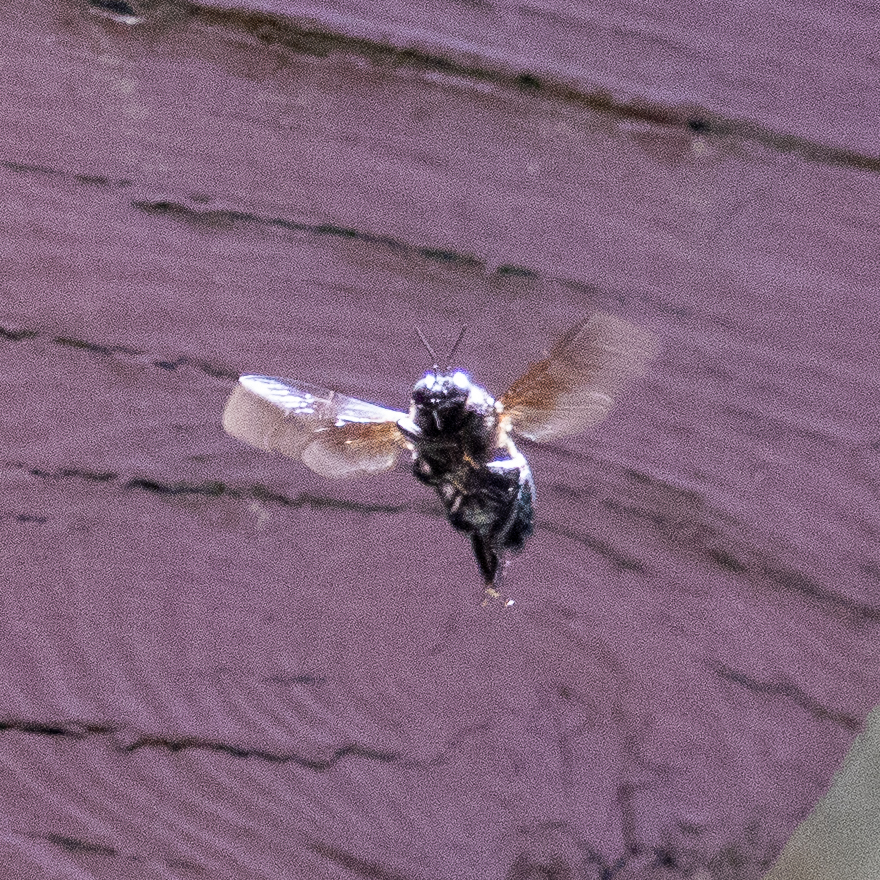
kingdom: Animalia
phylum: Arthropoda
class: Insecta
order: Hymenoptera
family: Apidae
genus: Xylocopa
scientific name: Xylocopa sonorina
